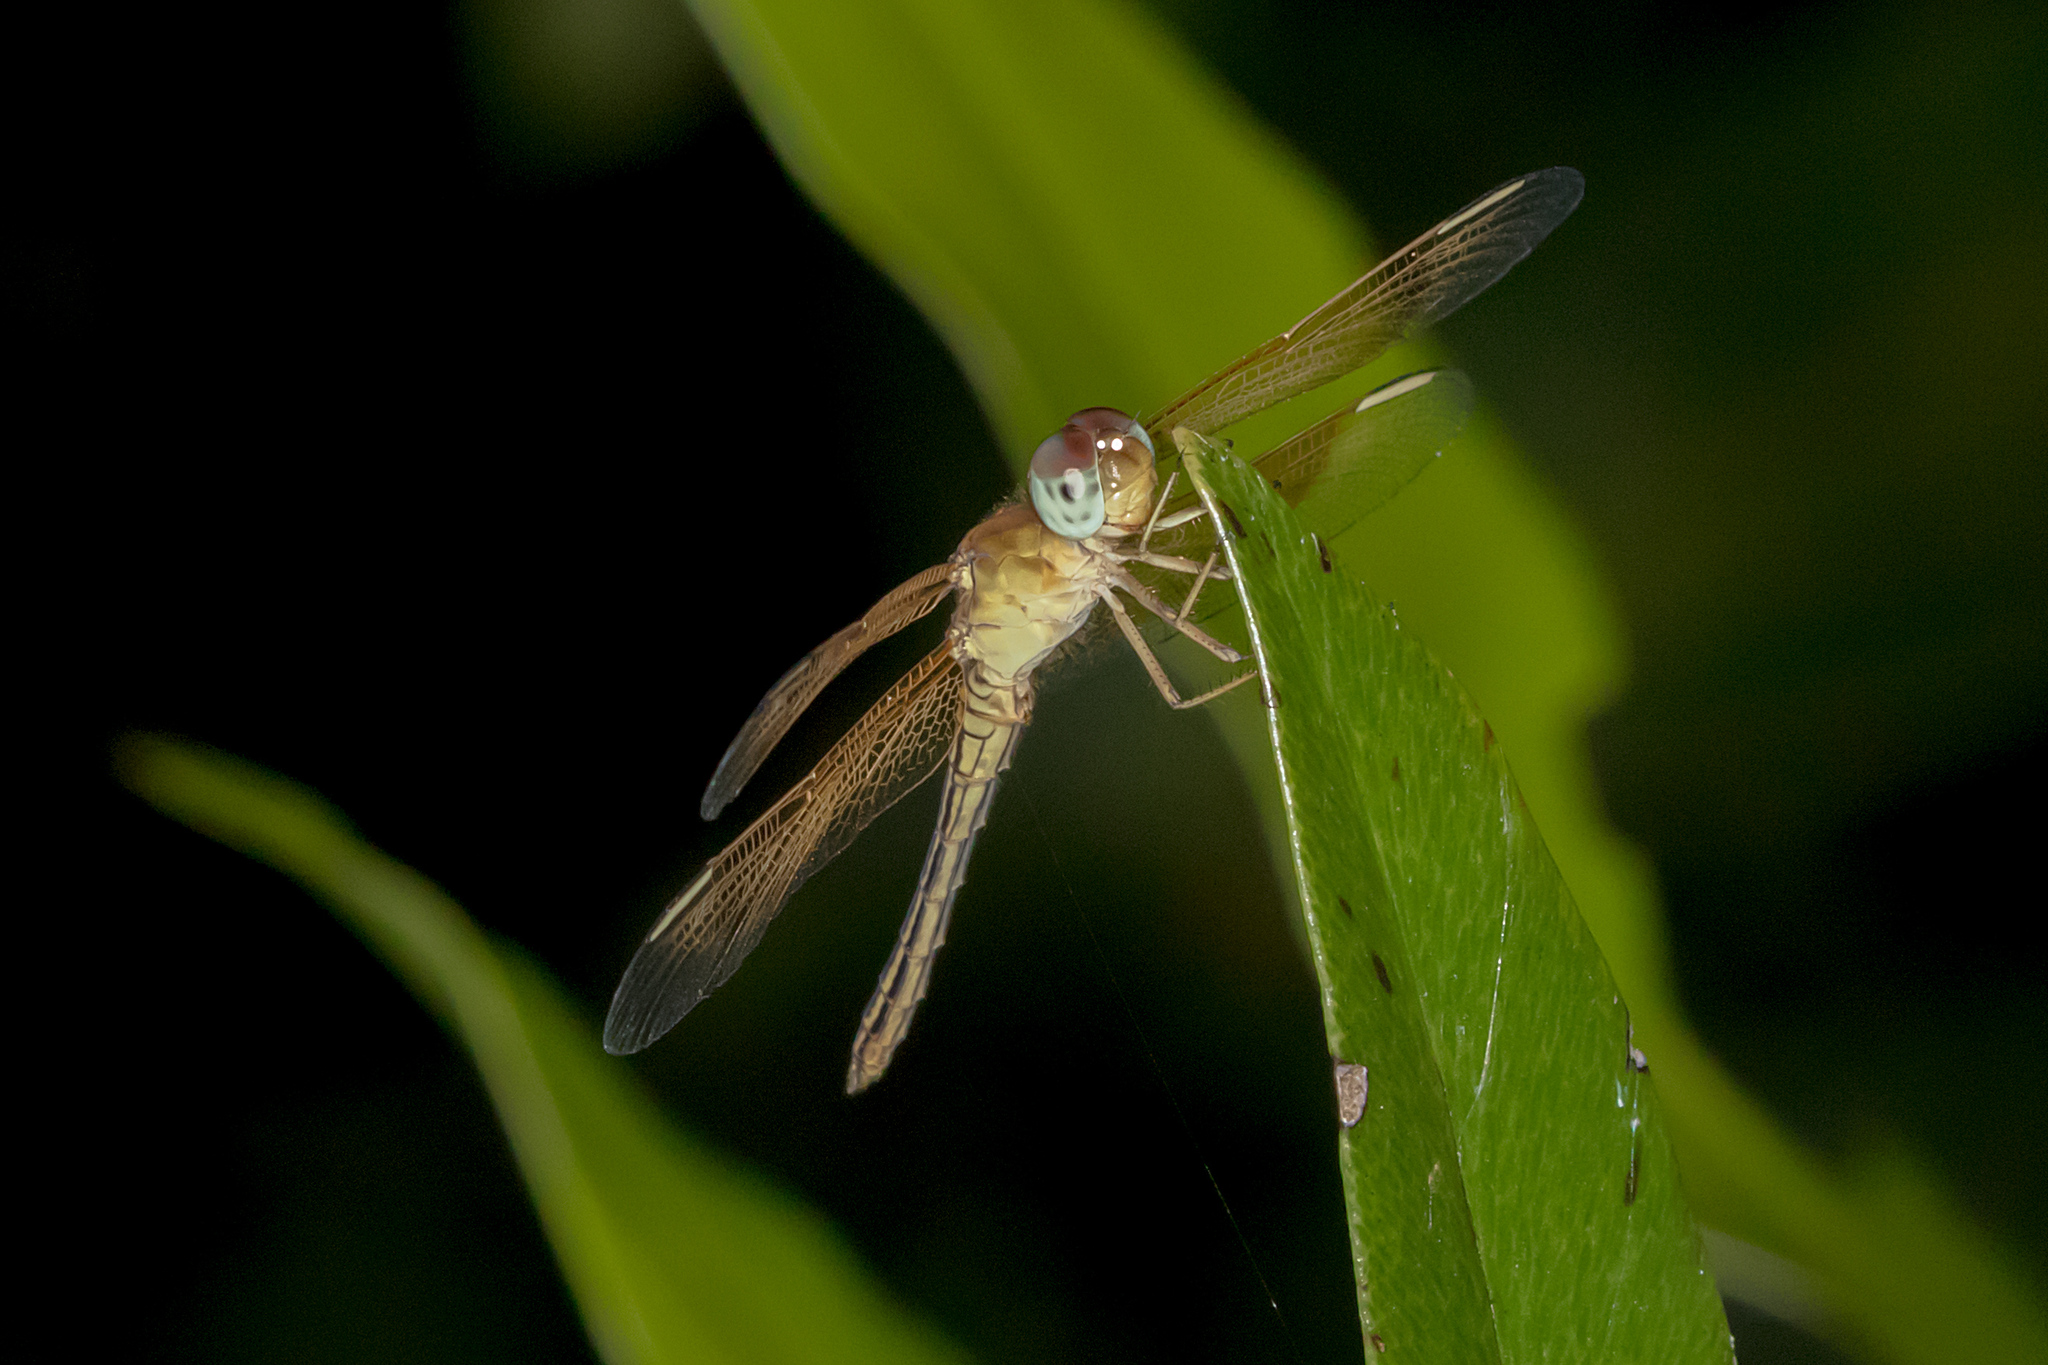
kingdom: Animalia
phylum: Arthropoda
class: Insecta
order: Odonata
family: Libellulidae
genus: Neurothemis
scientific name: Neurothemis stigmatizans
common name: Painted grasshawk
